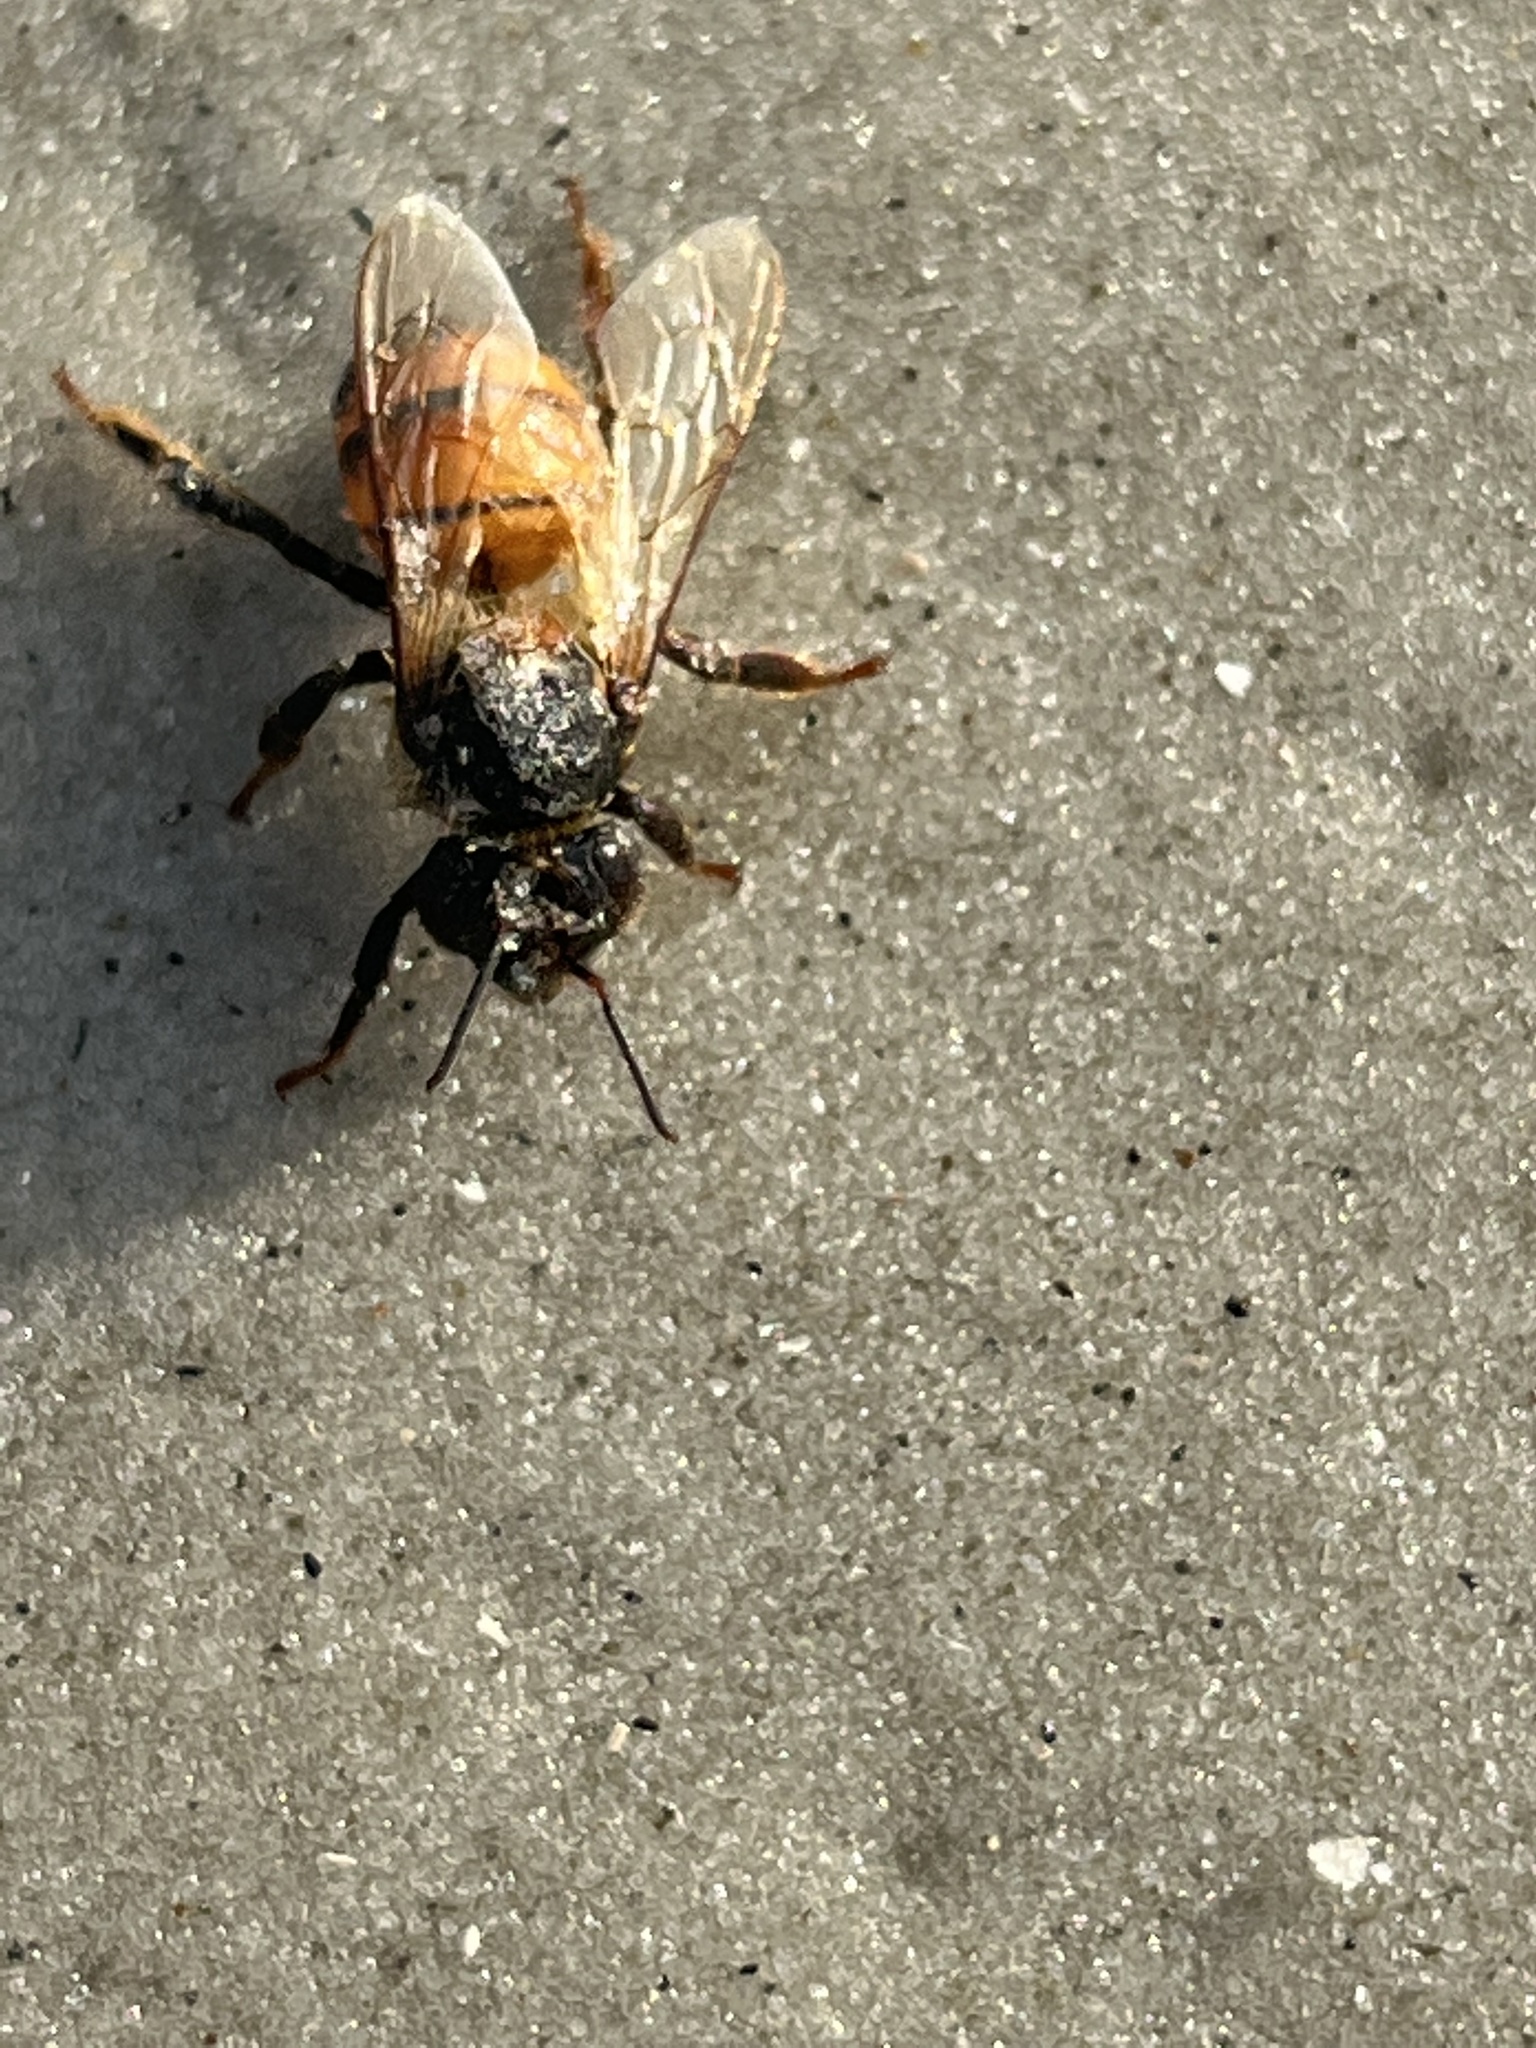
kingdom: Animalia
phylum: Arthropoda
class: Insecta
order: Hymenoptera
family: Apidae
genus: Apis
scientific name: Apis mellifera
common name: Honey bee
